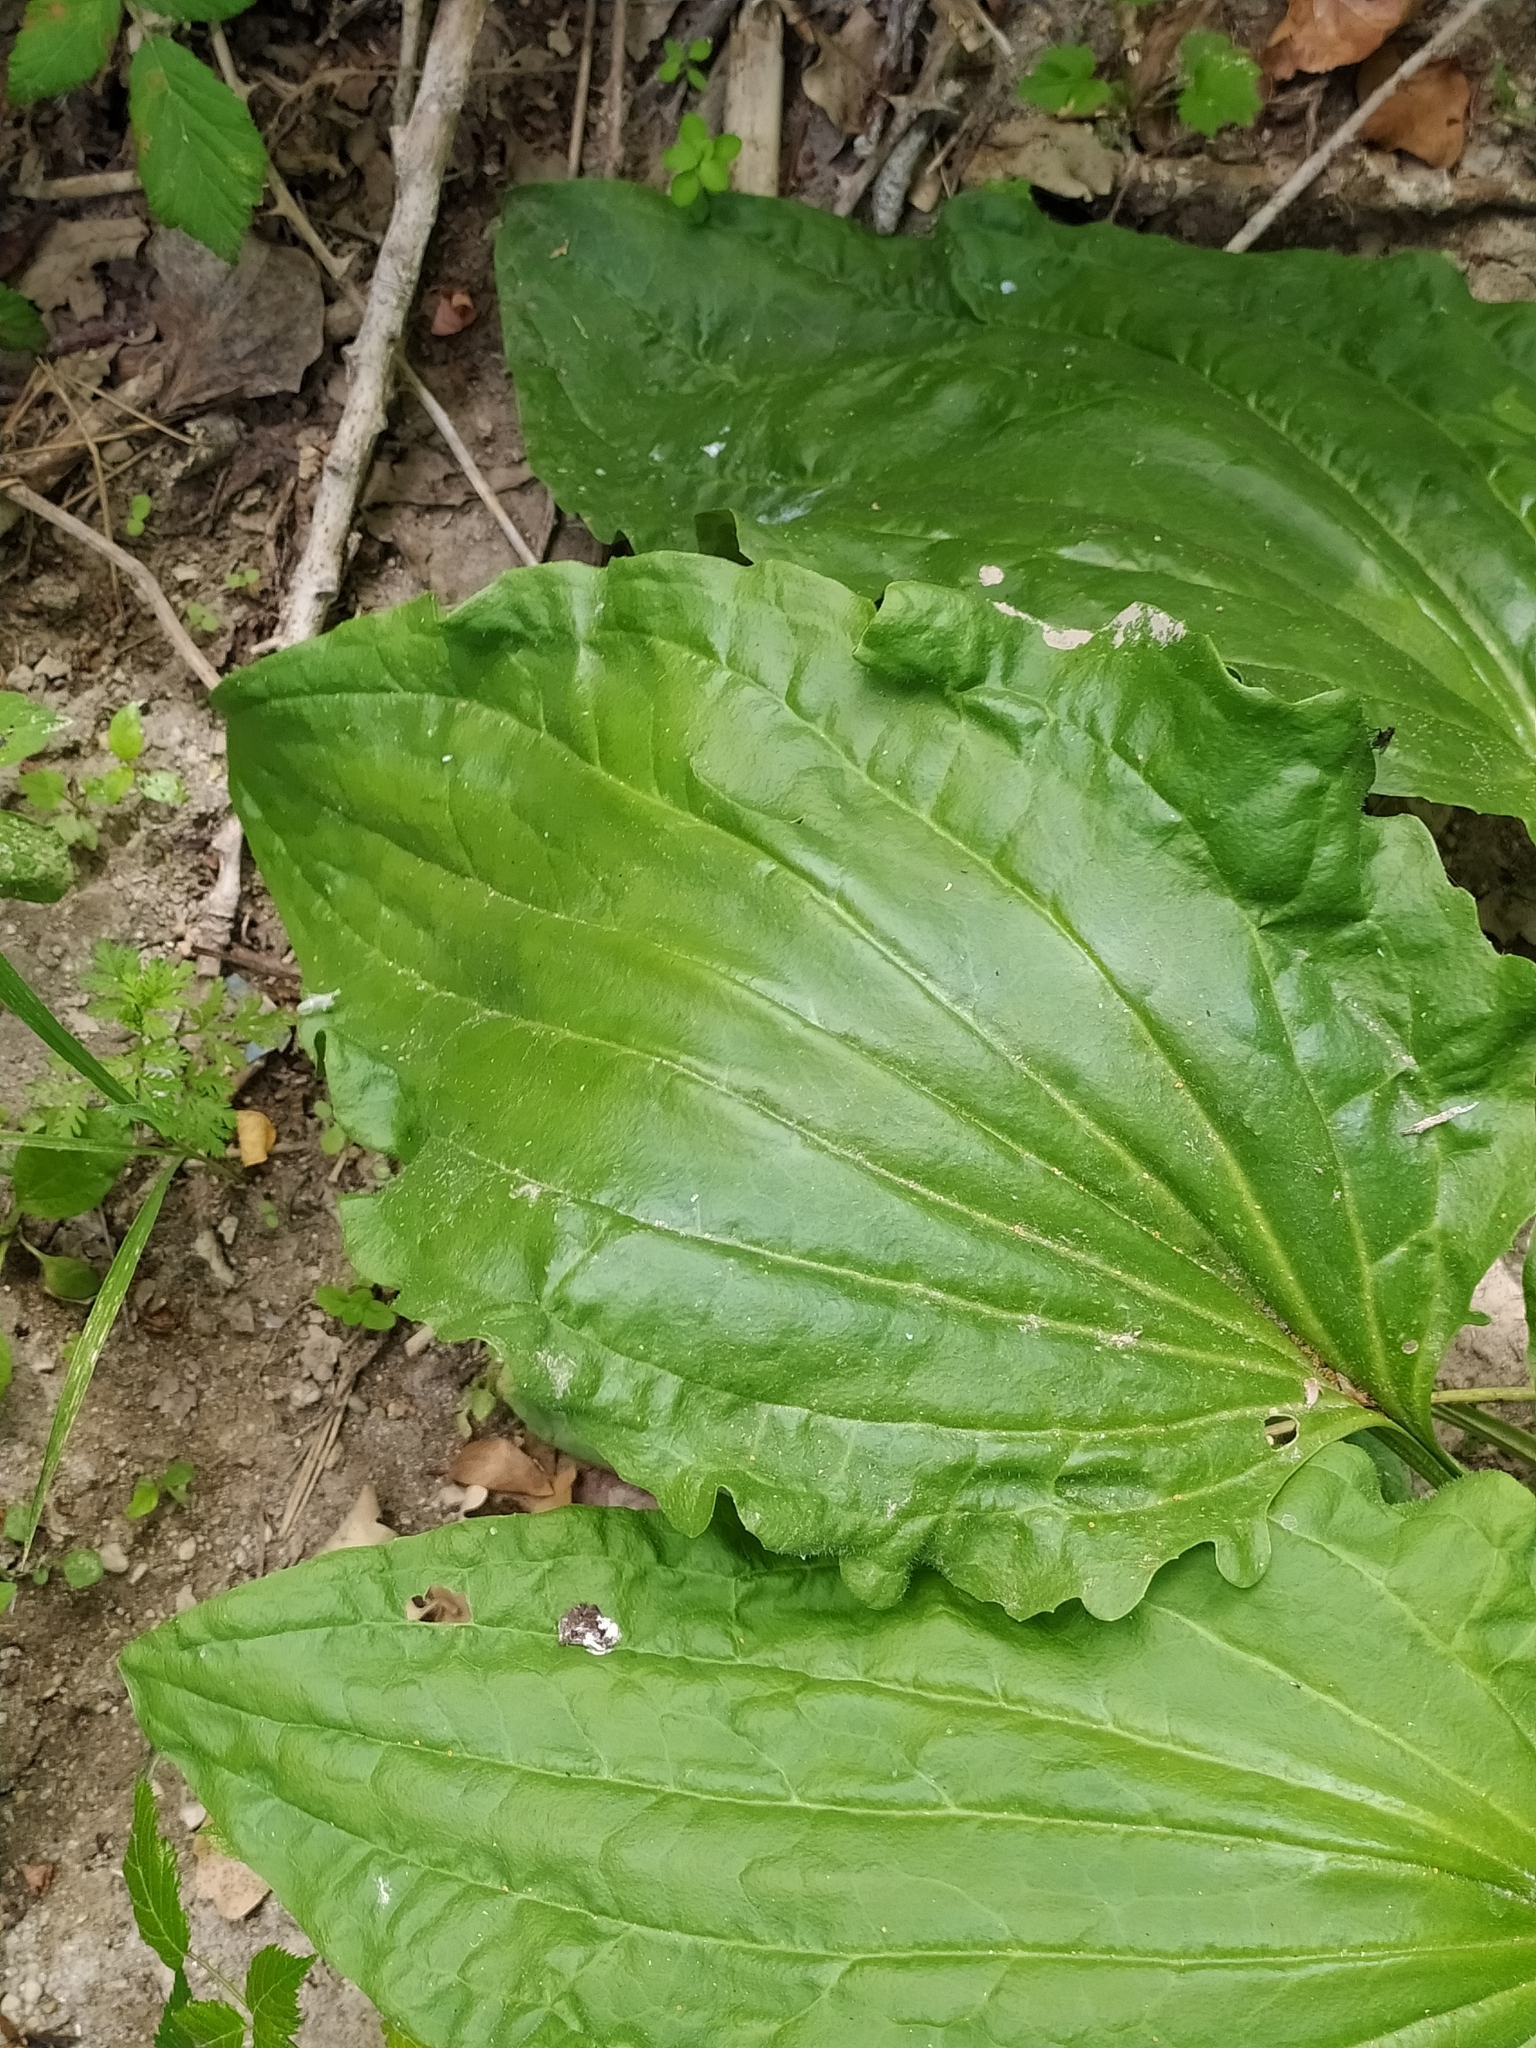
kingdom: Plantae
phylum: Tracheophyta
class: Magnoliopsida
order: Lamiales
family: Plantaginaceae
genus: Plantago
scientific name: Plantago major
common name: Common plantain
